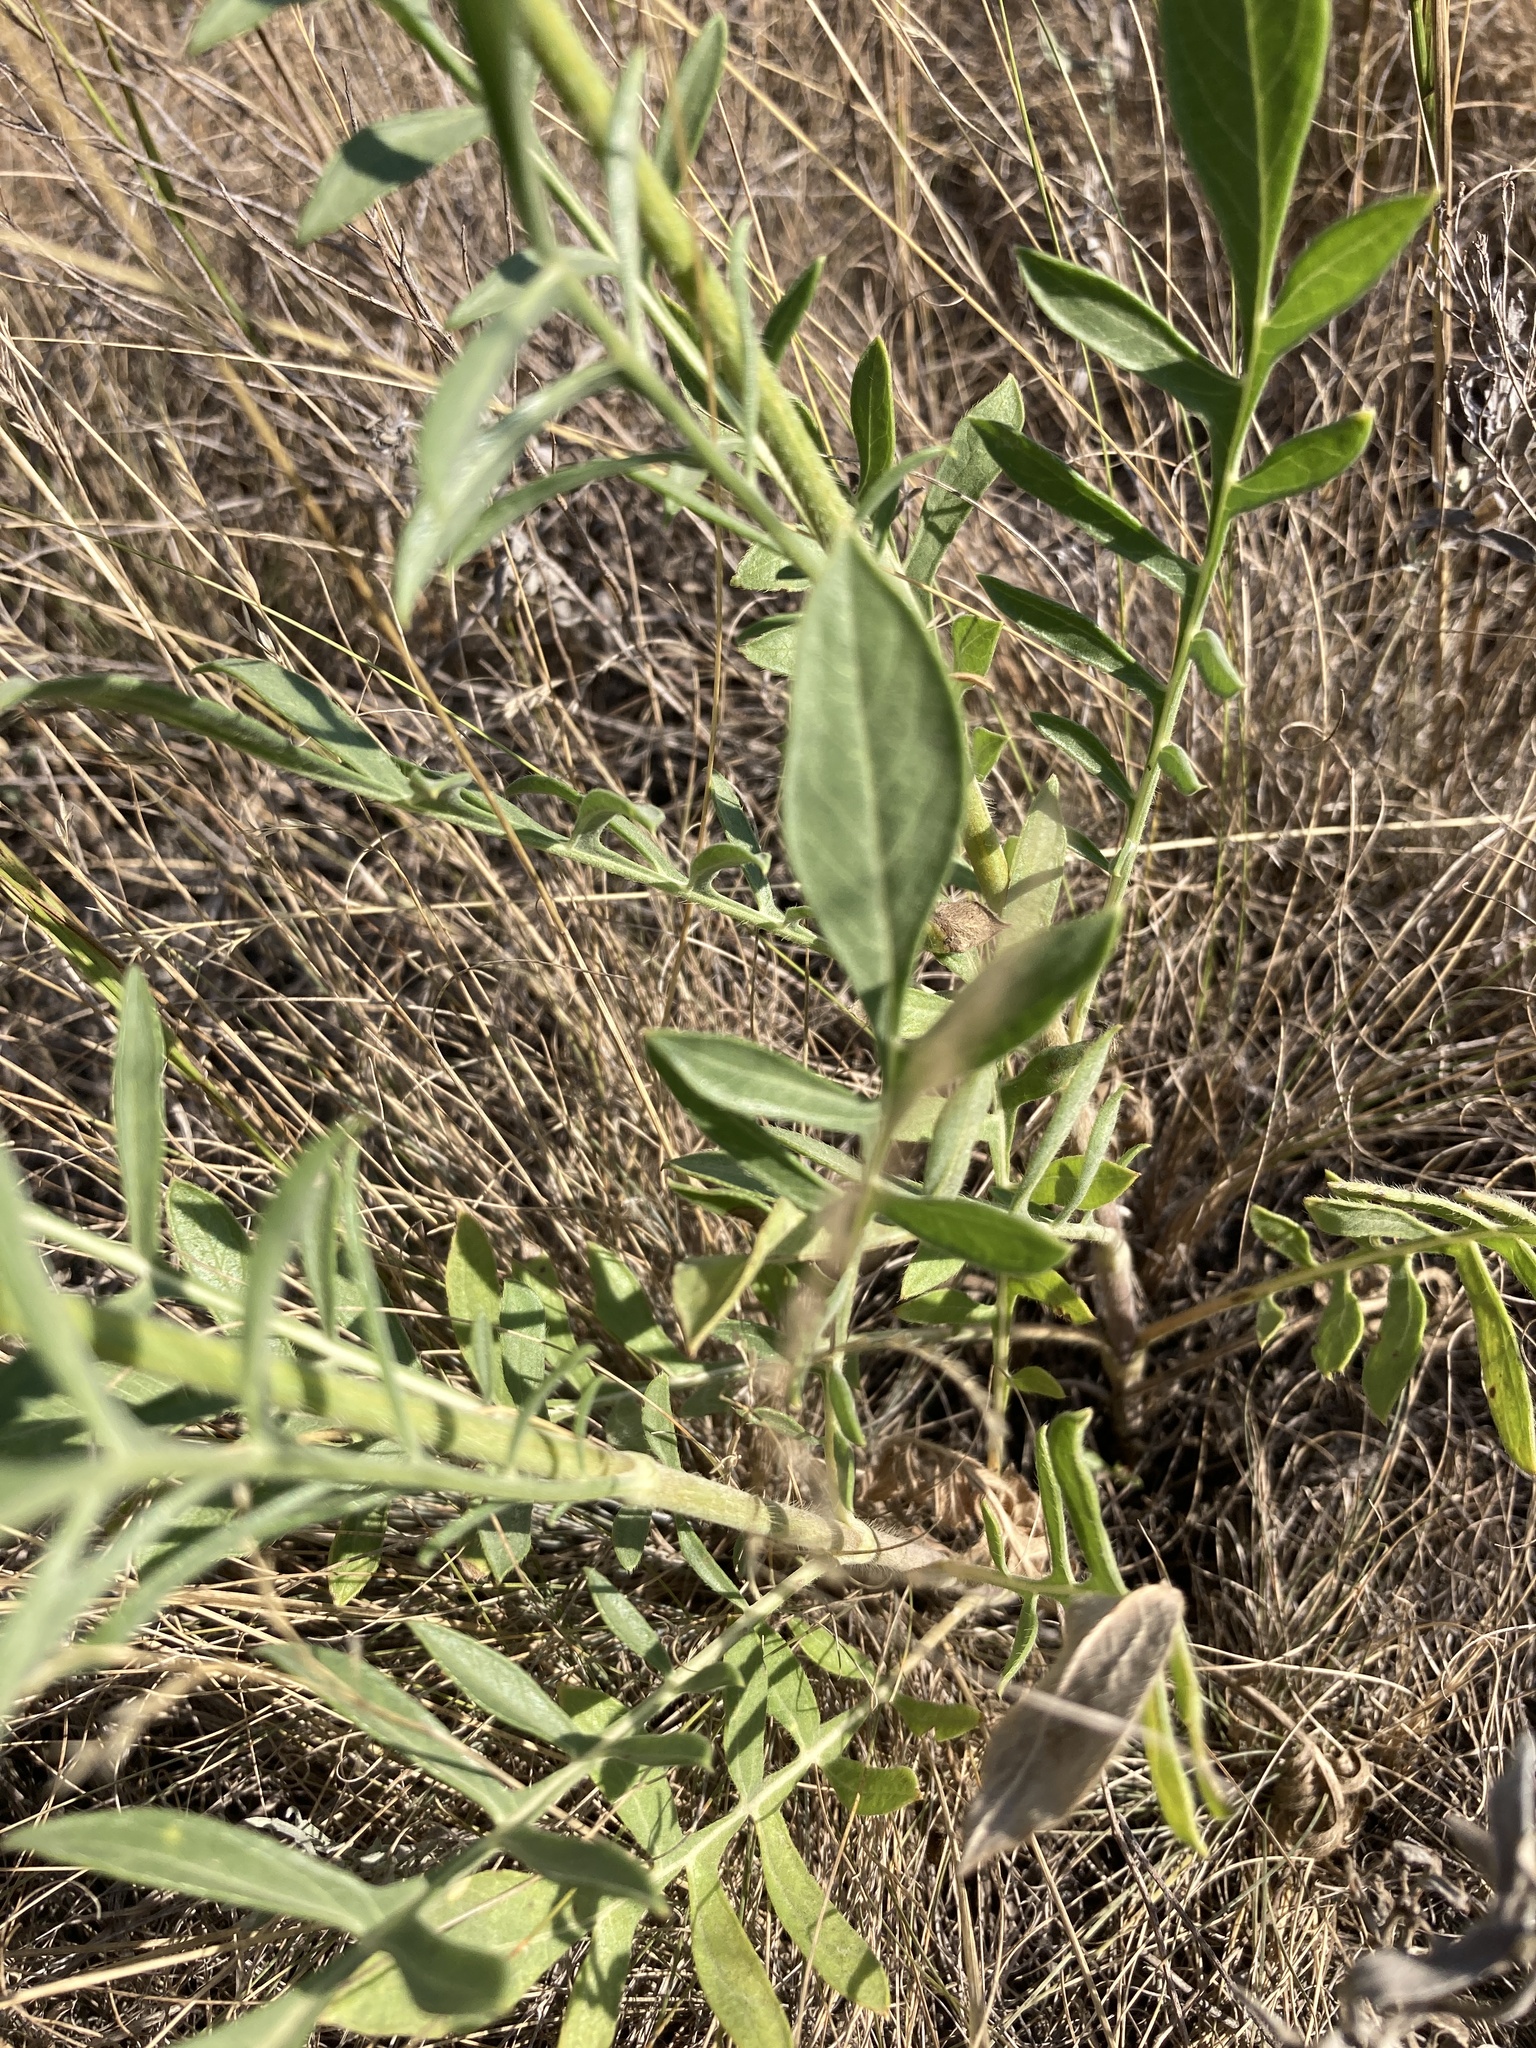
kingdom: Plantae
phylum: Tracheophyta
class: Magnoliopsida
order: Dipsacales
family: Caprifoliaceae
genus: Cephalaria
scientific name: Cephalaria uralensis
